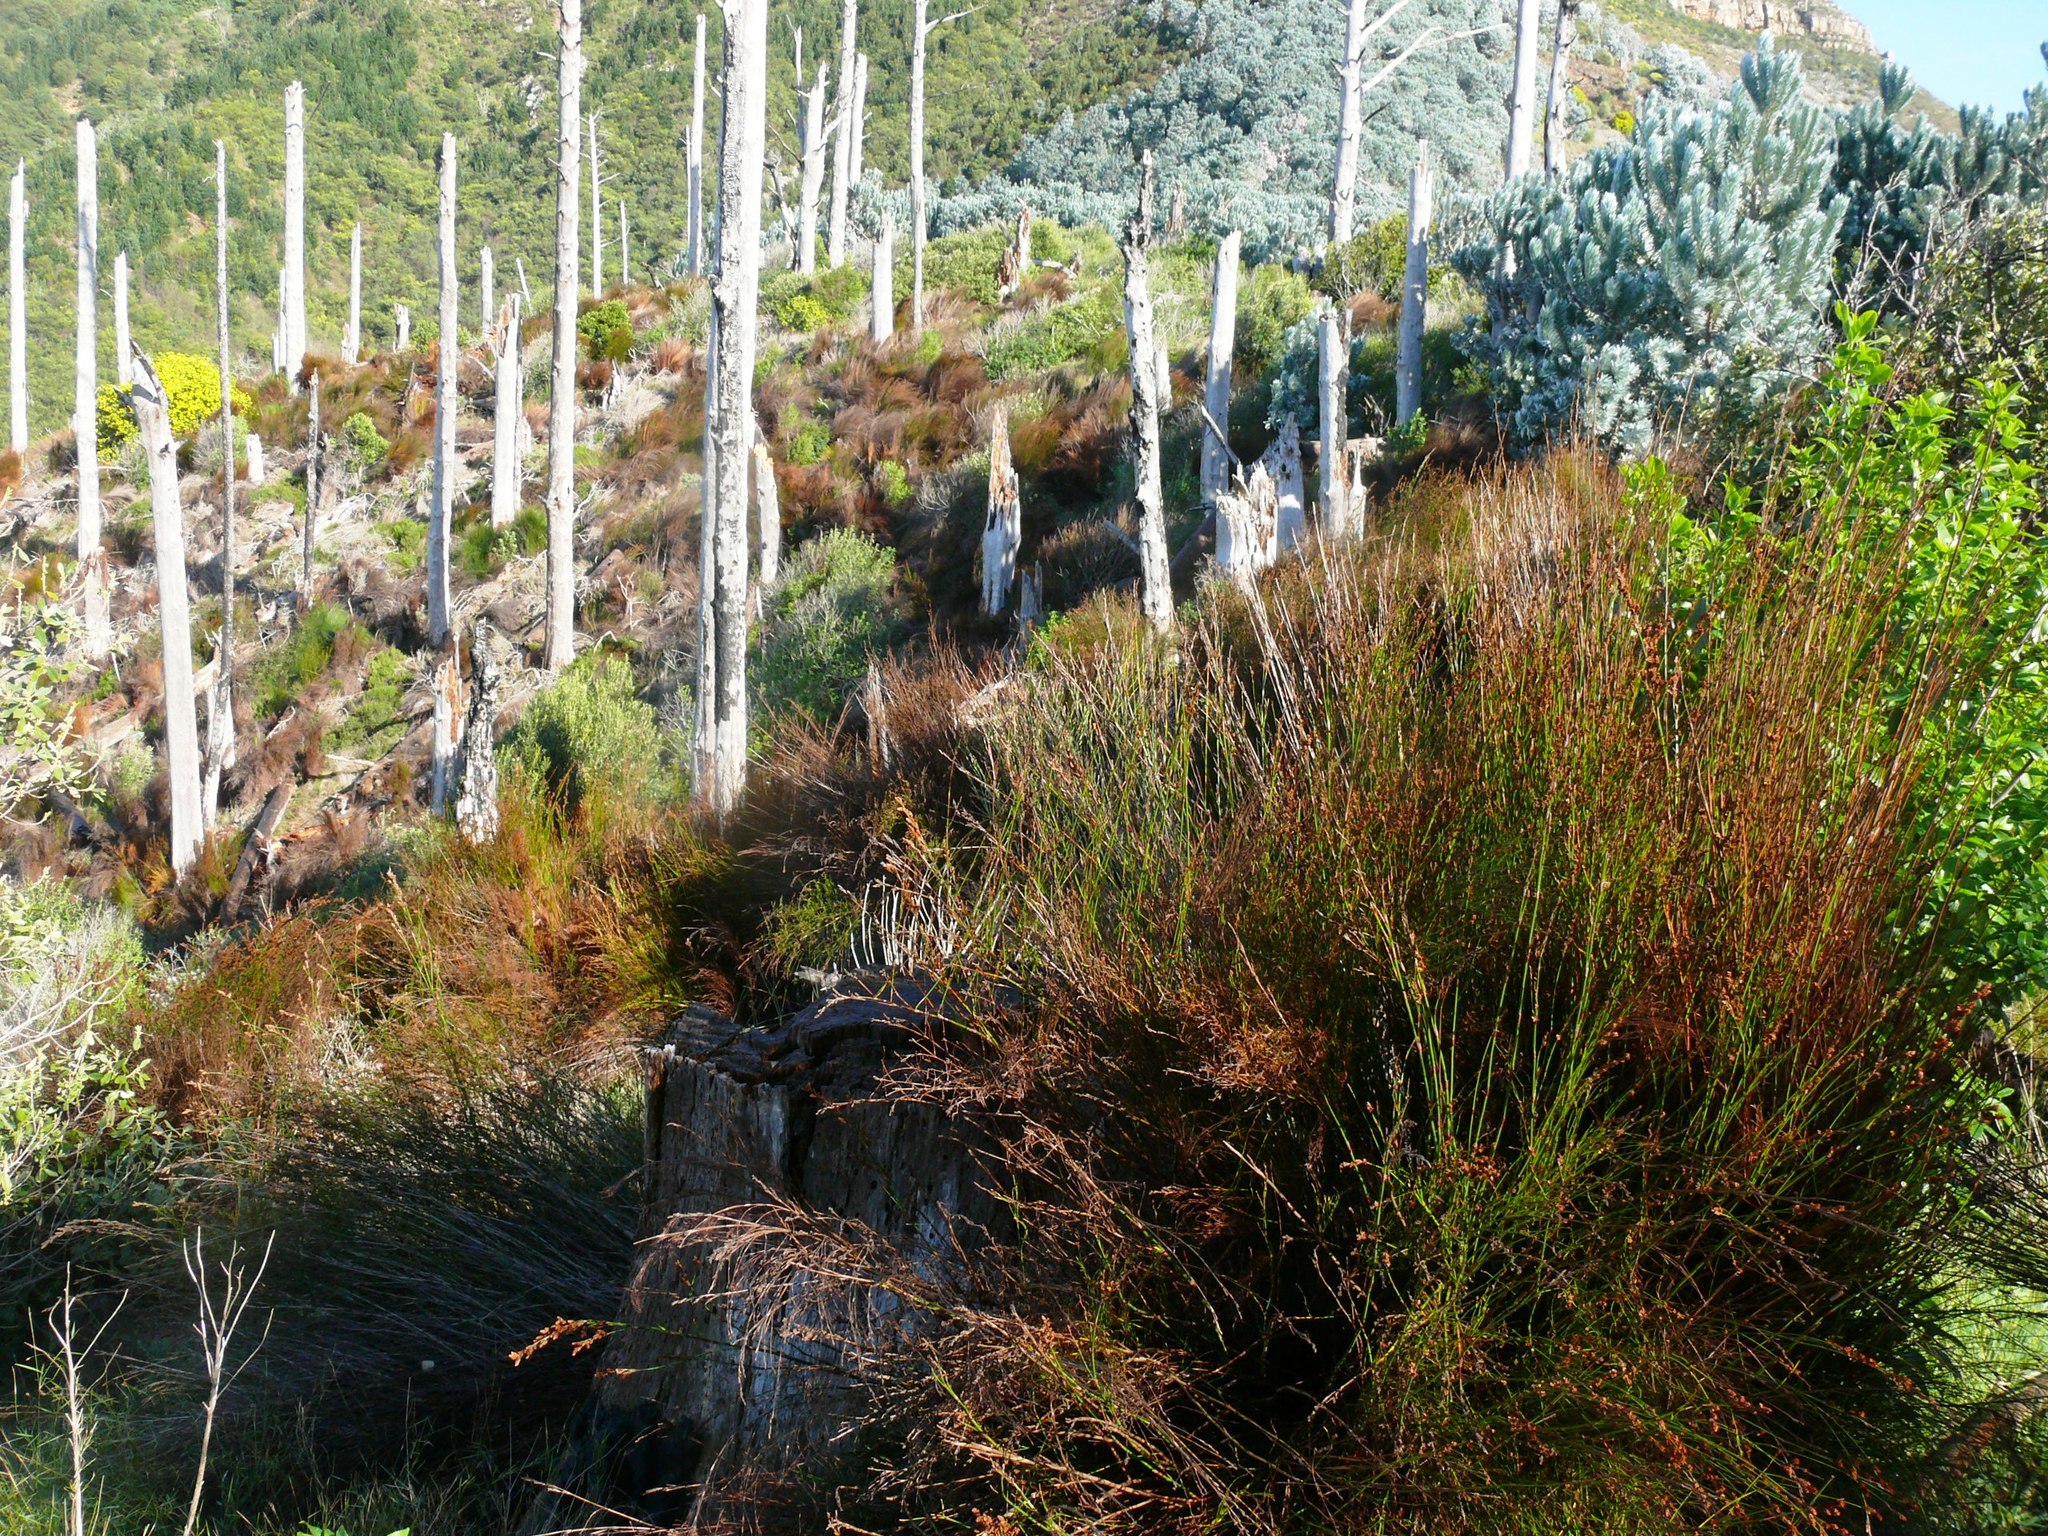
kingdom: Plantae
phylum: Tracheophyta
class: Liliopsida
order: Poales
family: Restionaceae
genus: Restio
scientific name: Restio multiflorus
